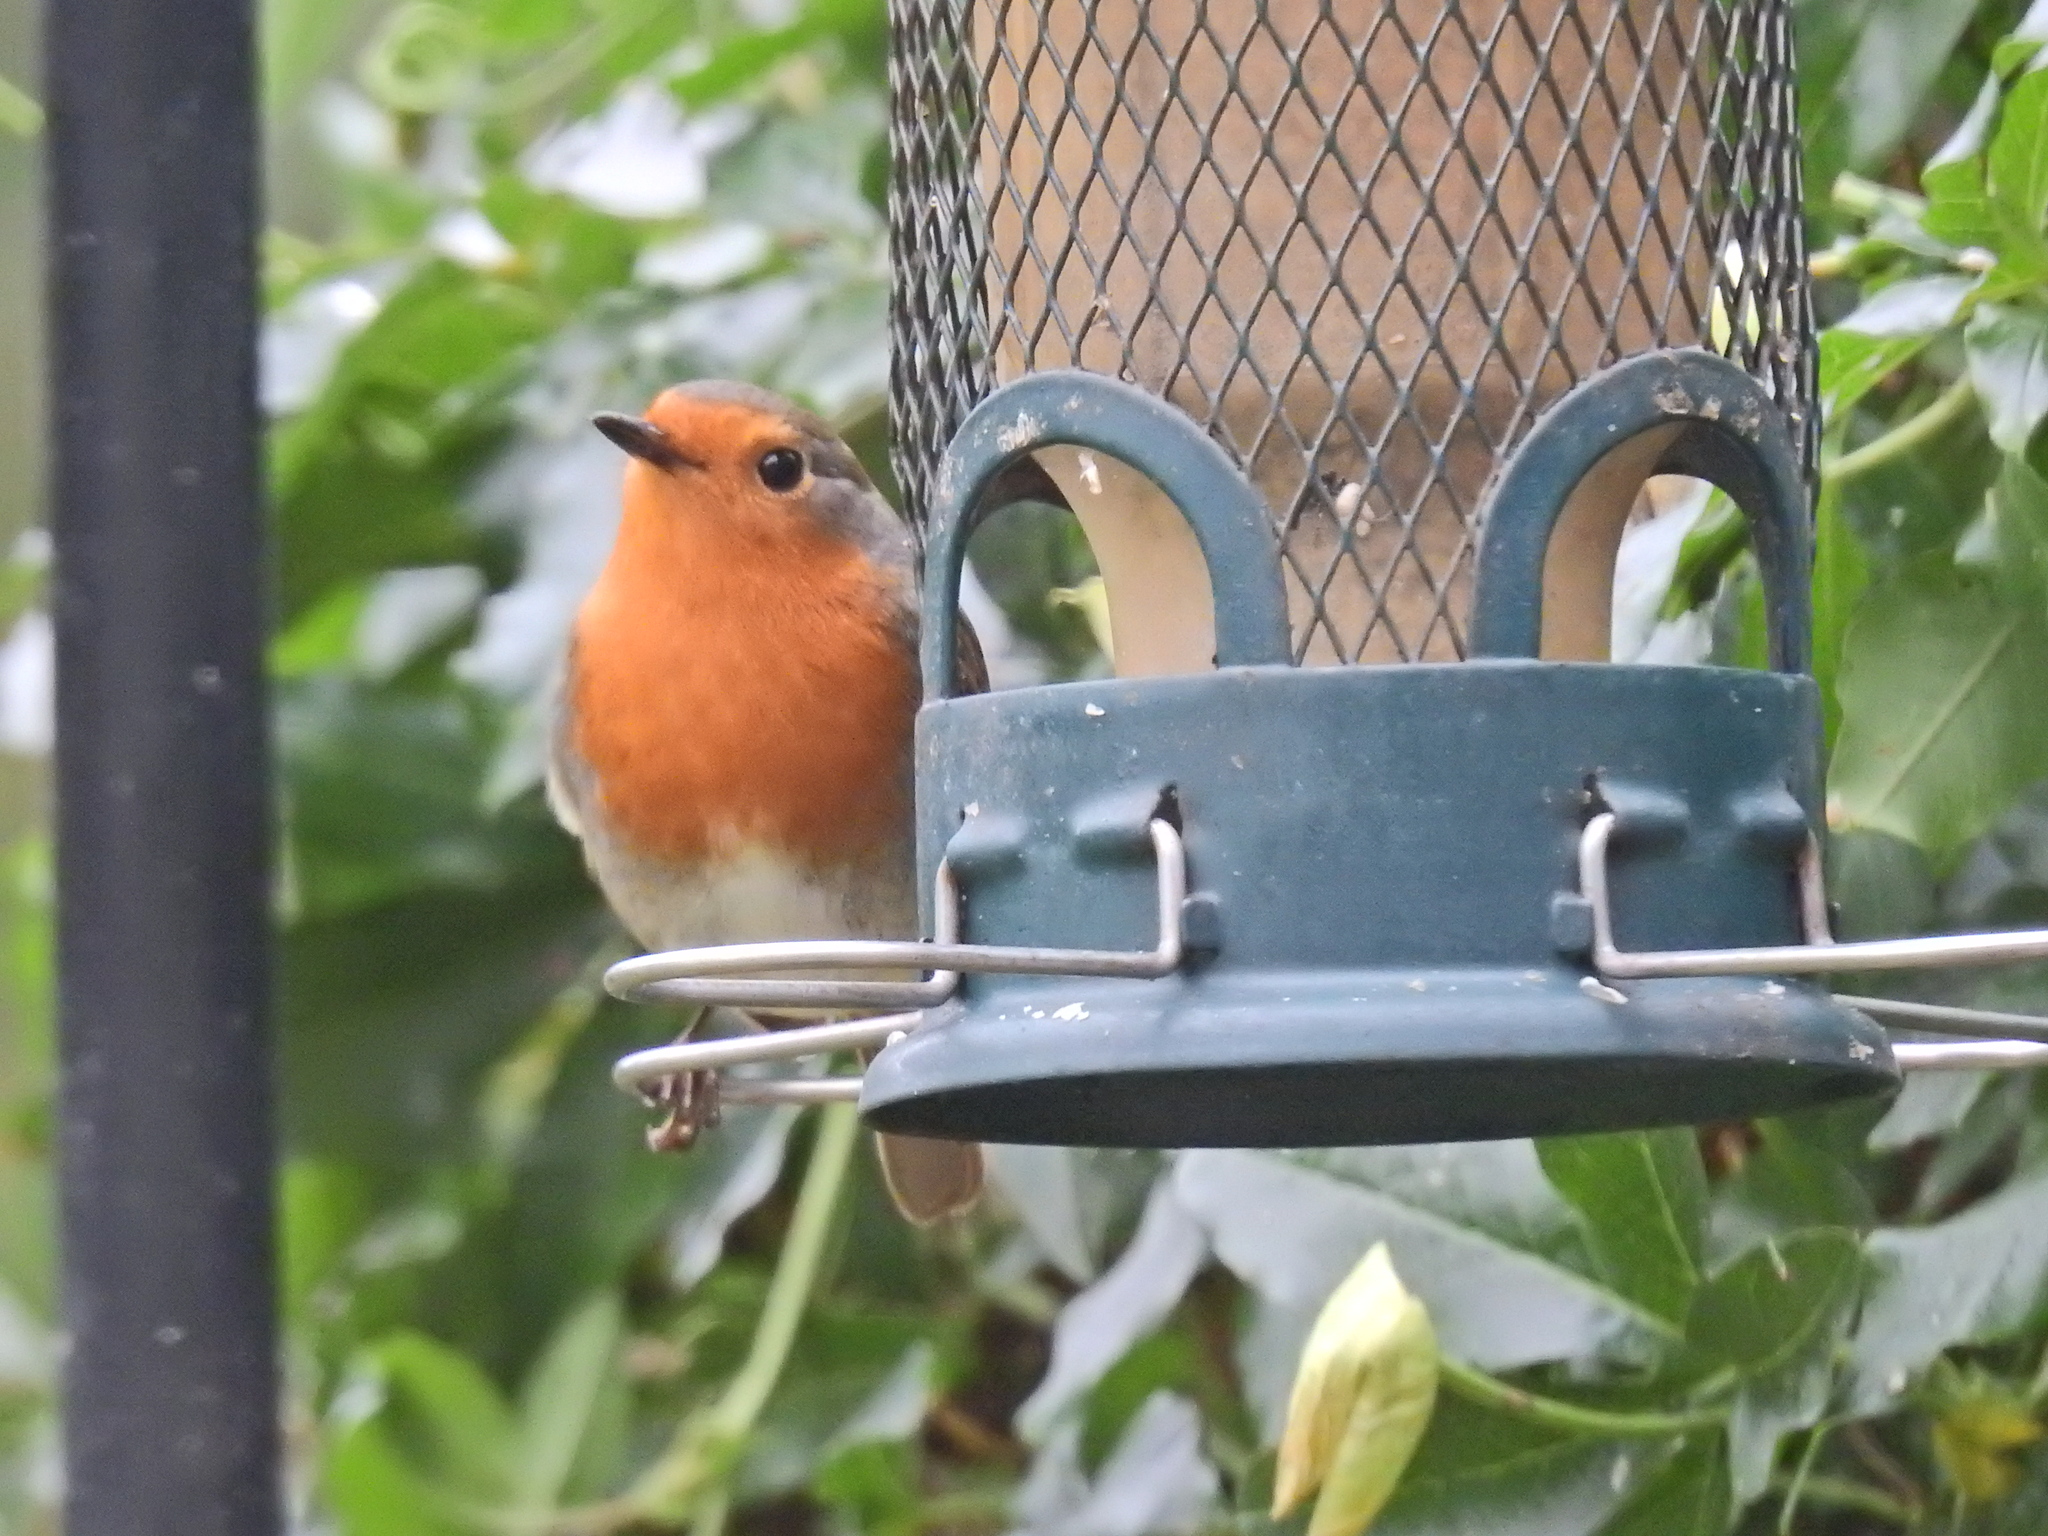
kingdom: Animalia
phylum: Chordata
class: Aves
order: Passeriformes
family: Muscicapidae
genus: Erithacus
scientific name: Erithacus rubecula
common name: European robin
